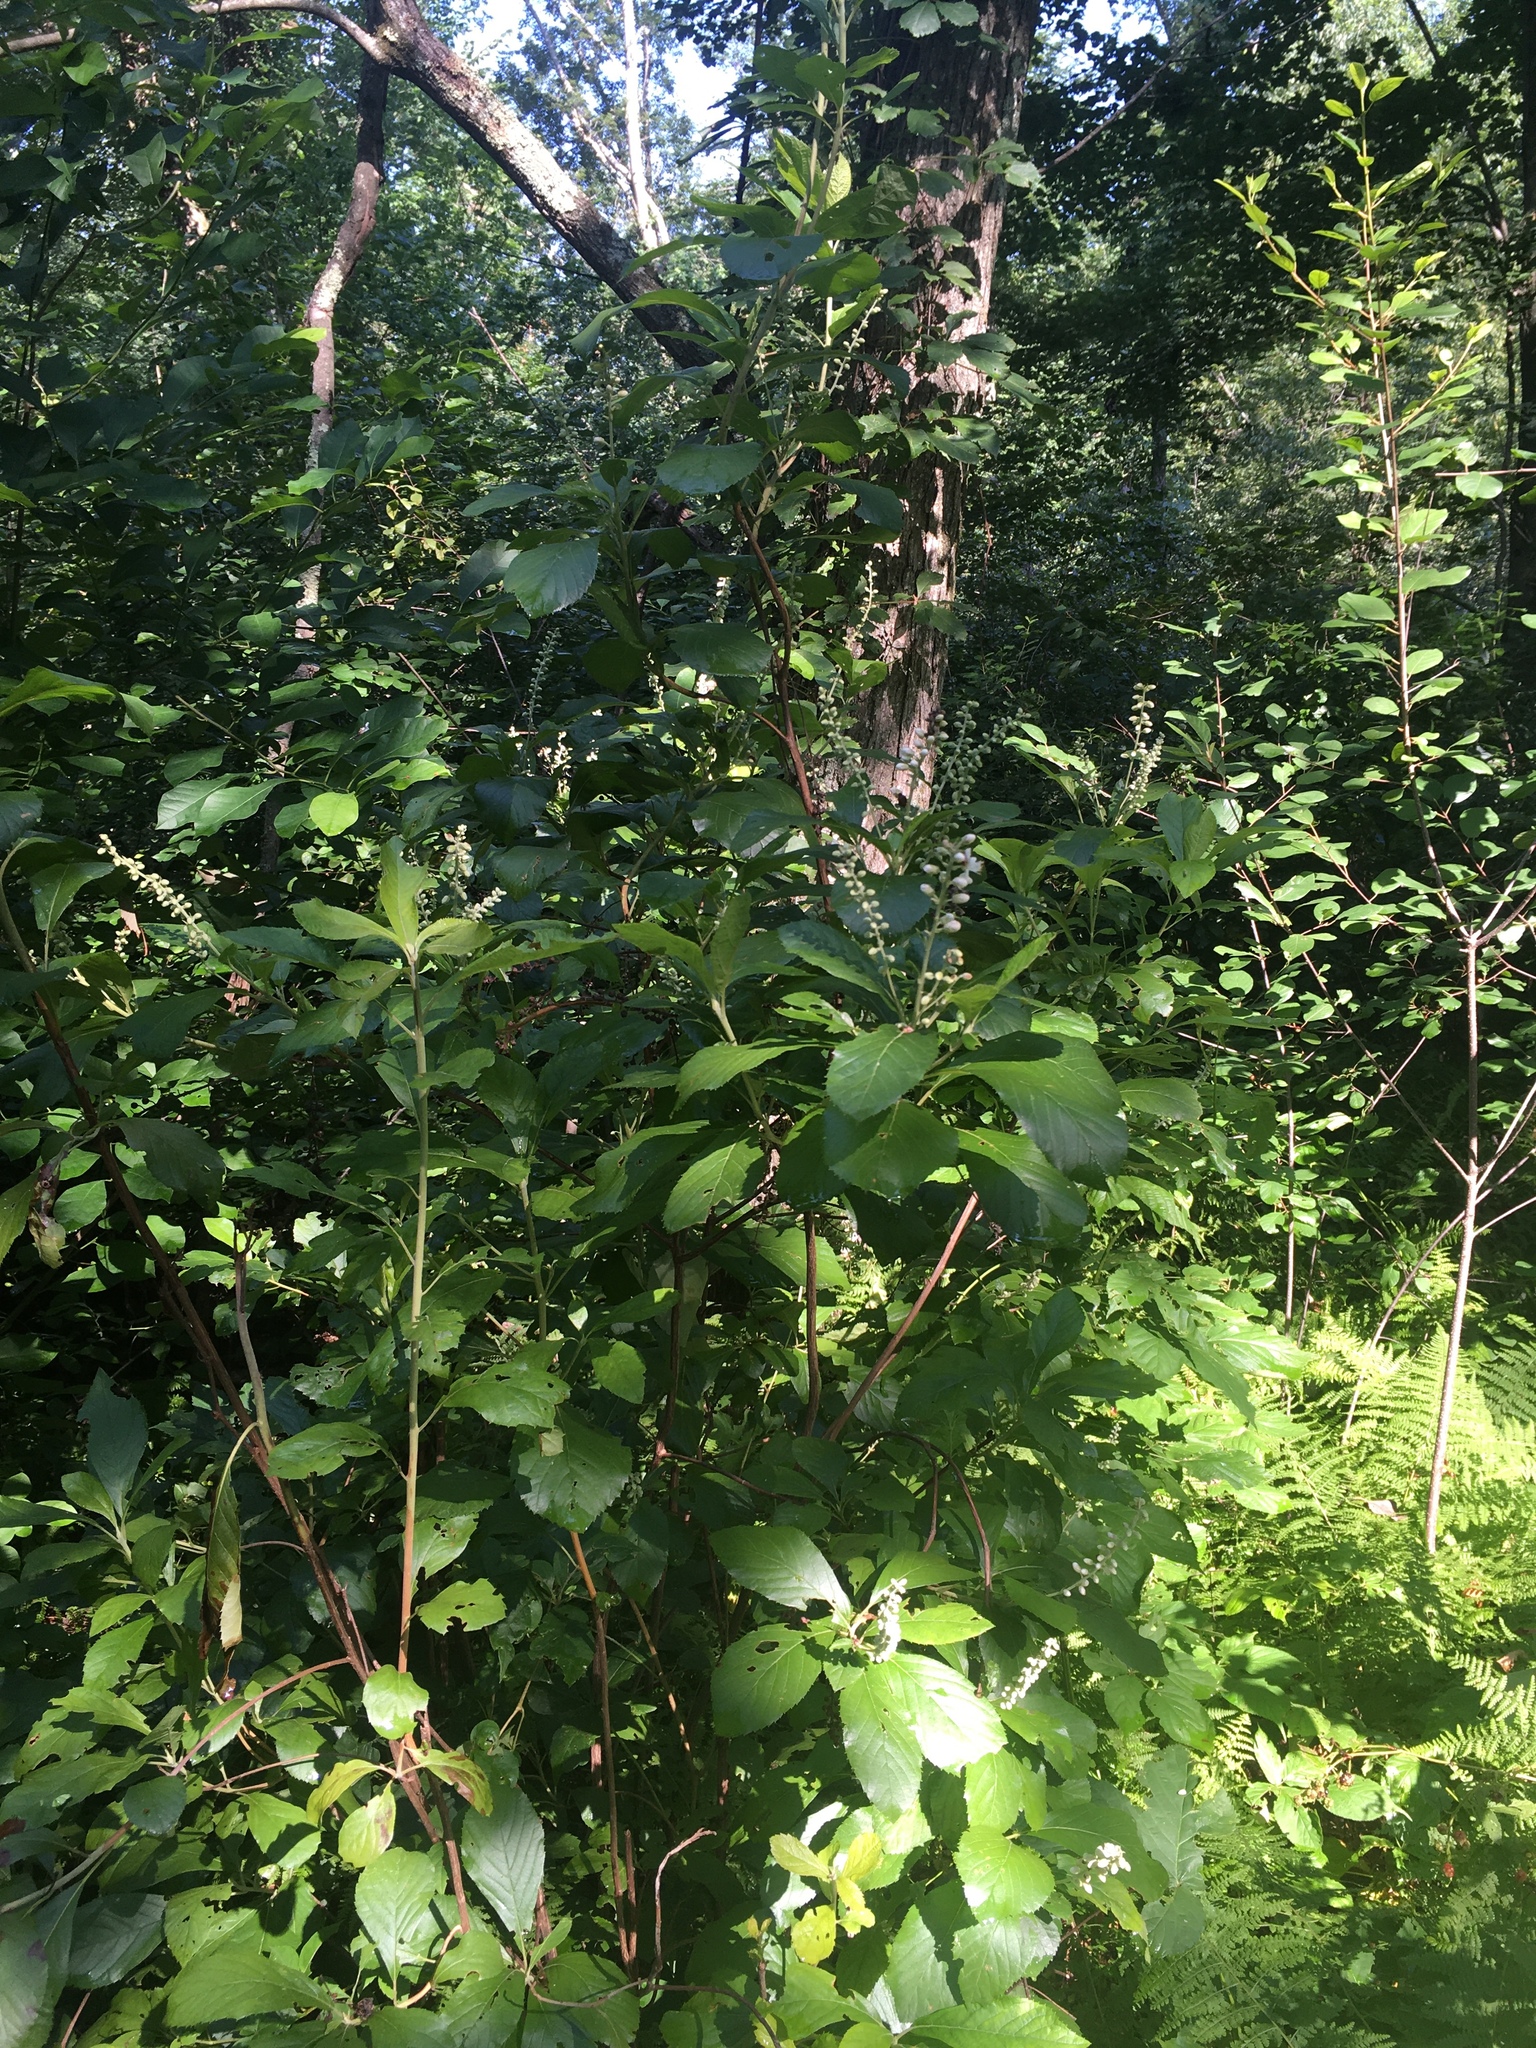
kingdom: Plantae
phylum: Tracheophyta
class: Magnoliopsida
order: Ericales
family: Clethraceae
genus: Clethra
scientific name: Clethra alnifolia
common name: Sweet pepperbush
